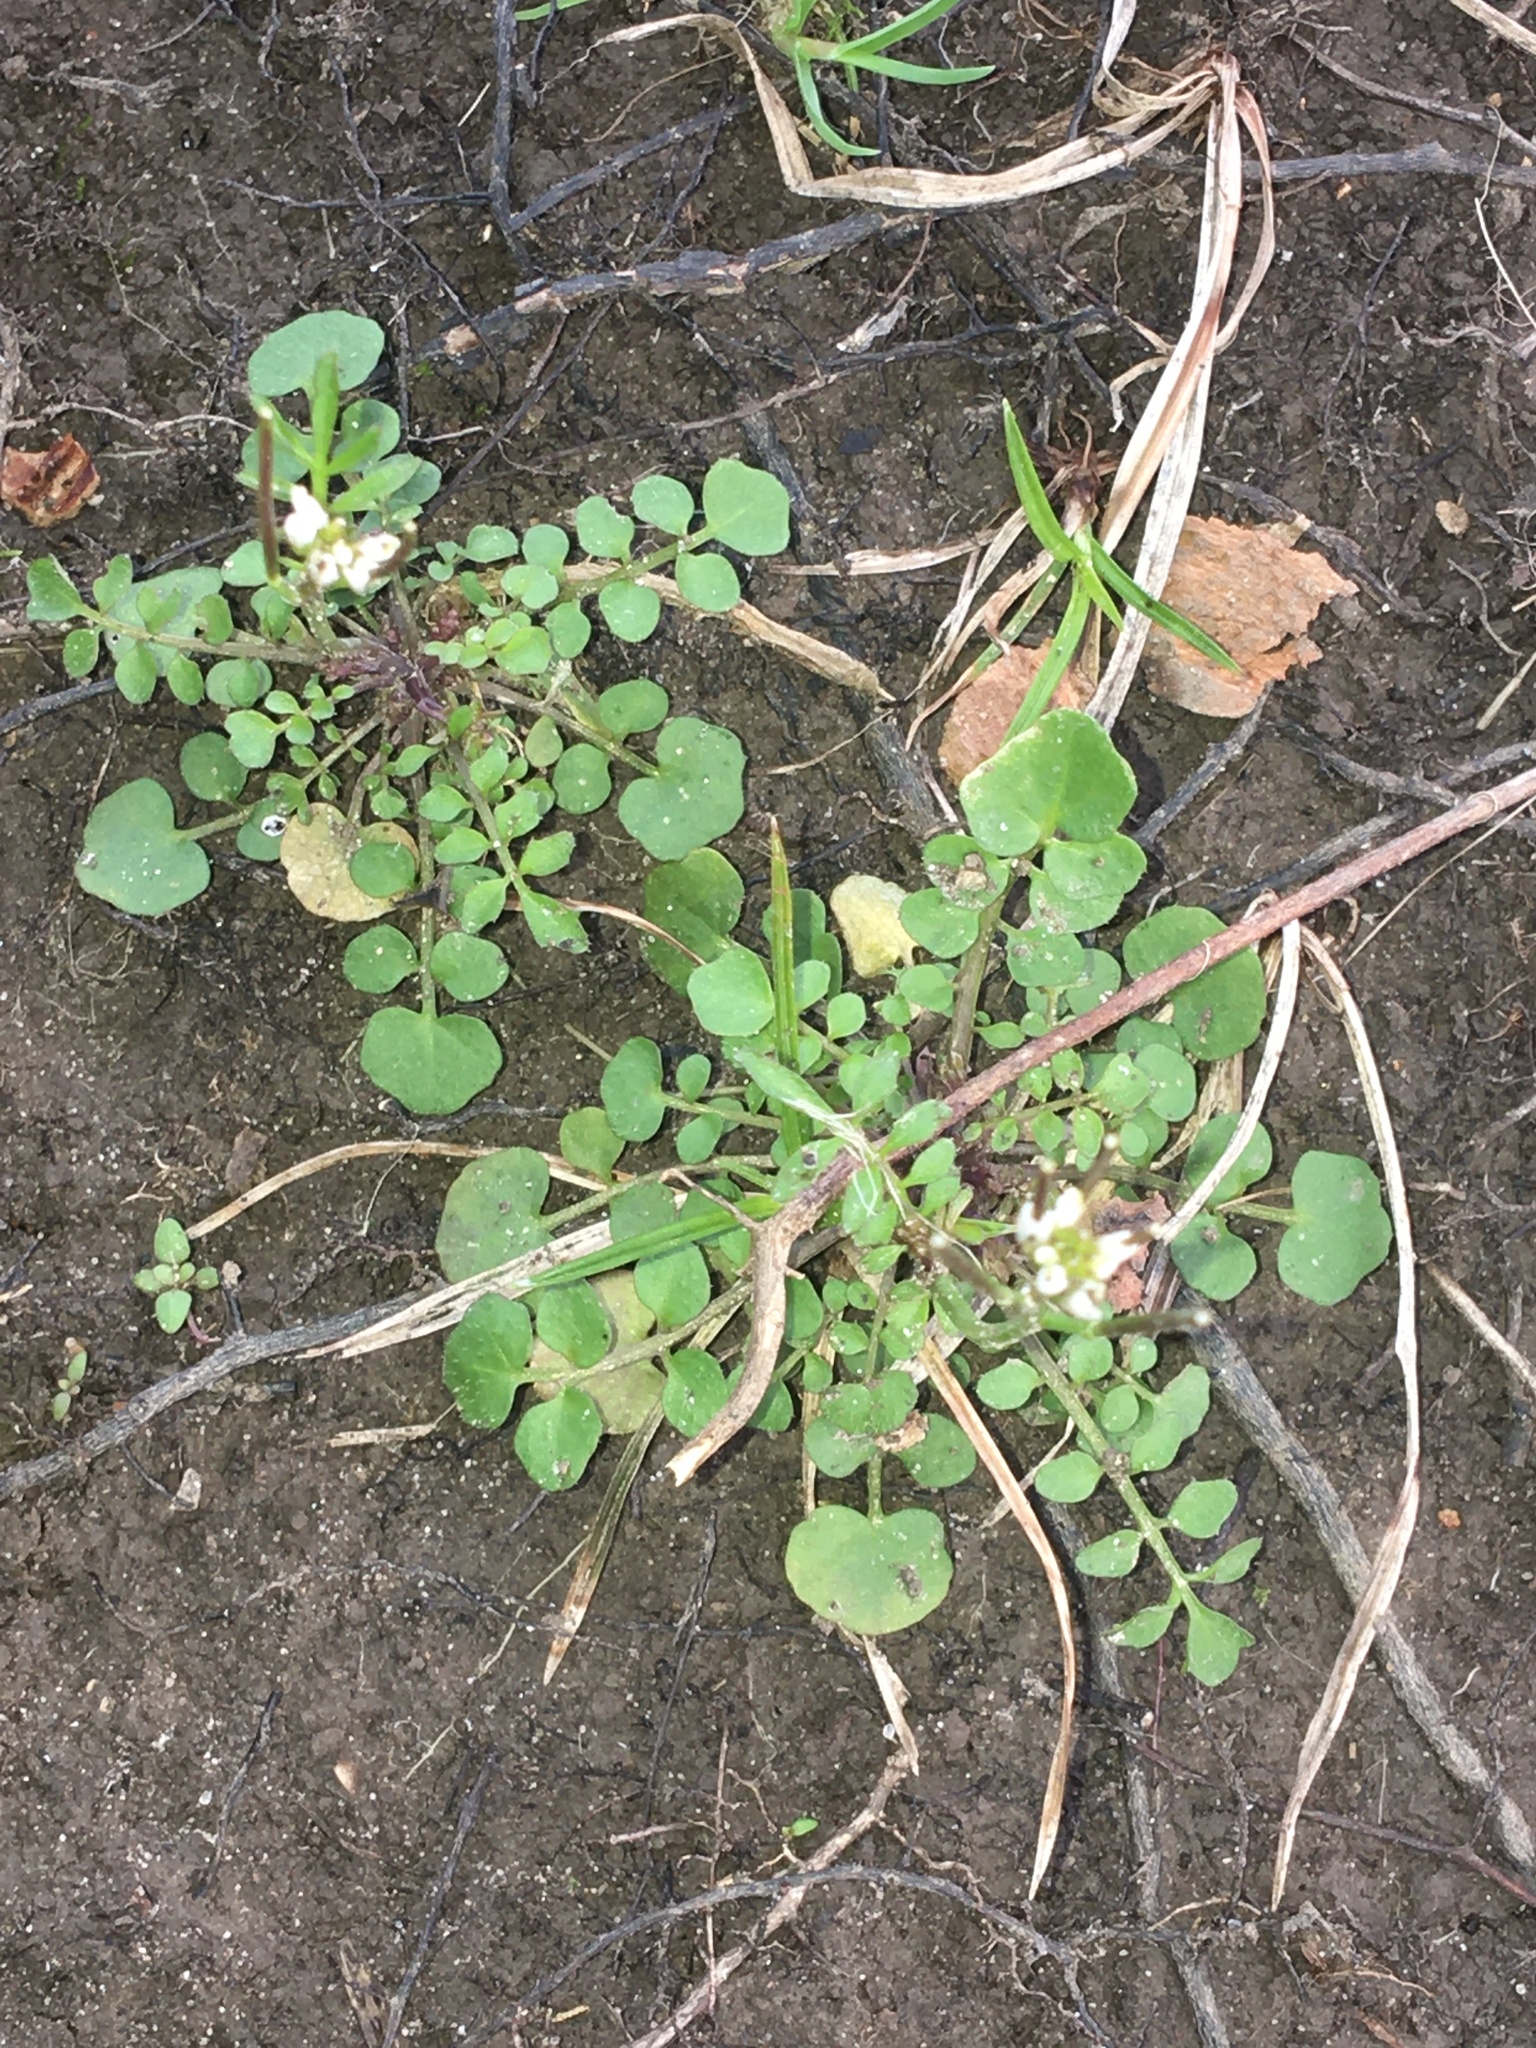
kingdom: Plantae
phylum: Tracheophyta
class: Magnoliopsida
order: Brassicales
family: Brassicaceae
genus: Cardamine
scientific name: Cardamine hirsuta
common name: Hairy bittercress
